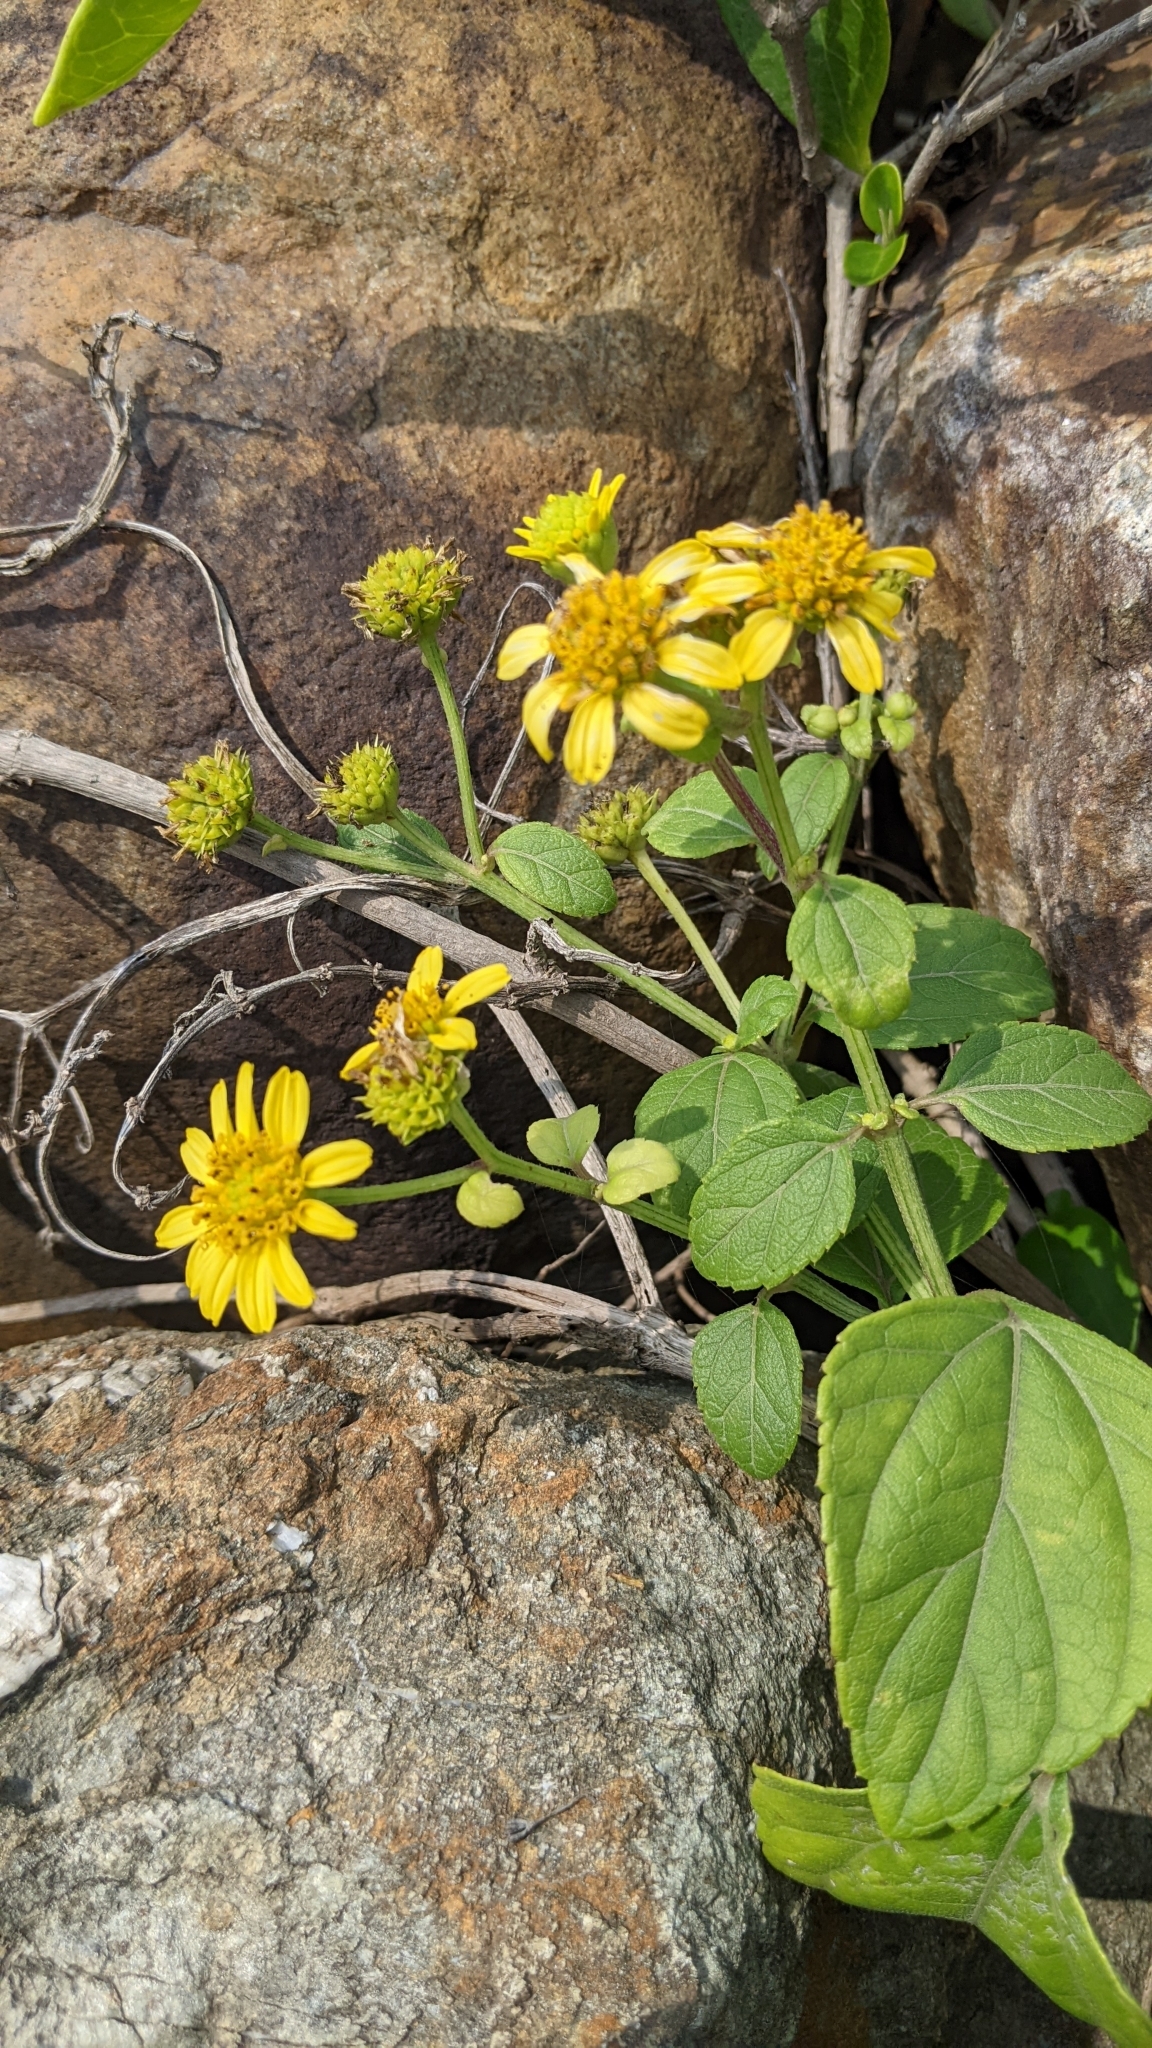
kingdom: Plantae
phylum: Tracheophyta
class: Magnoliopsida
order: Asterales
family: Asteraceae
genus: Wollastonia
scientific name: Wollastonia biflora
